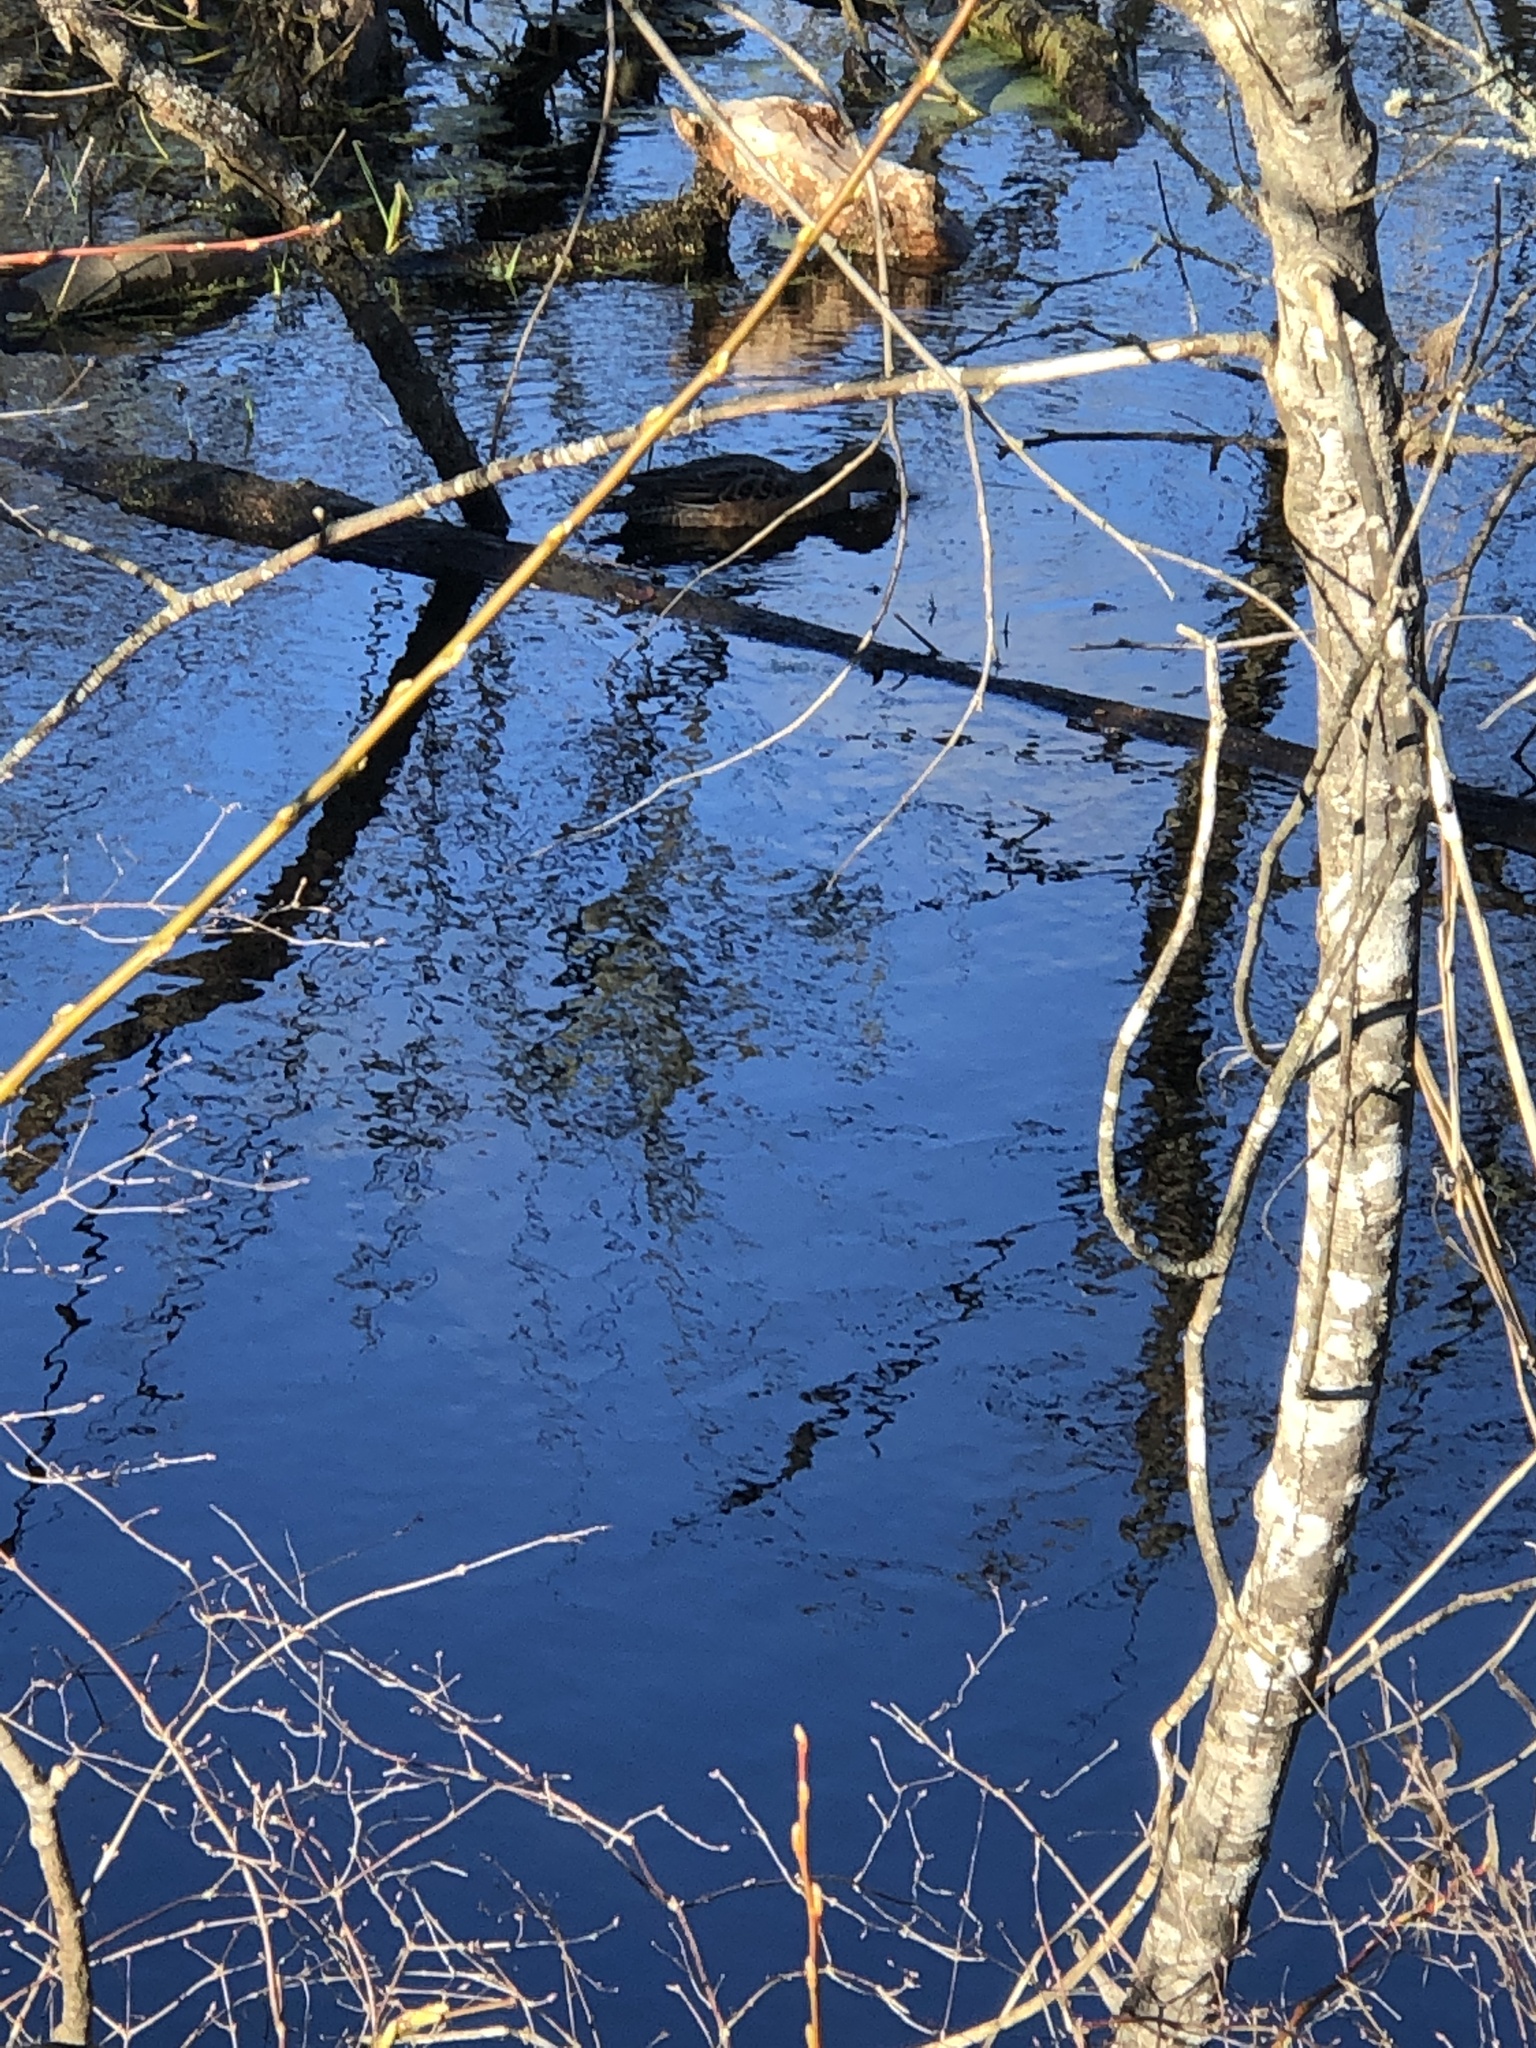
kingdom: Animalia
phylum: Chordata
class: Aves
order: Anseriformes
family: Anatidae
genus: Mareca
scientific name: Mareca americana
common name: American wigeon
